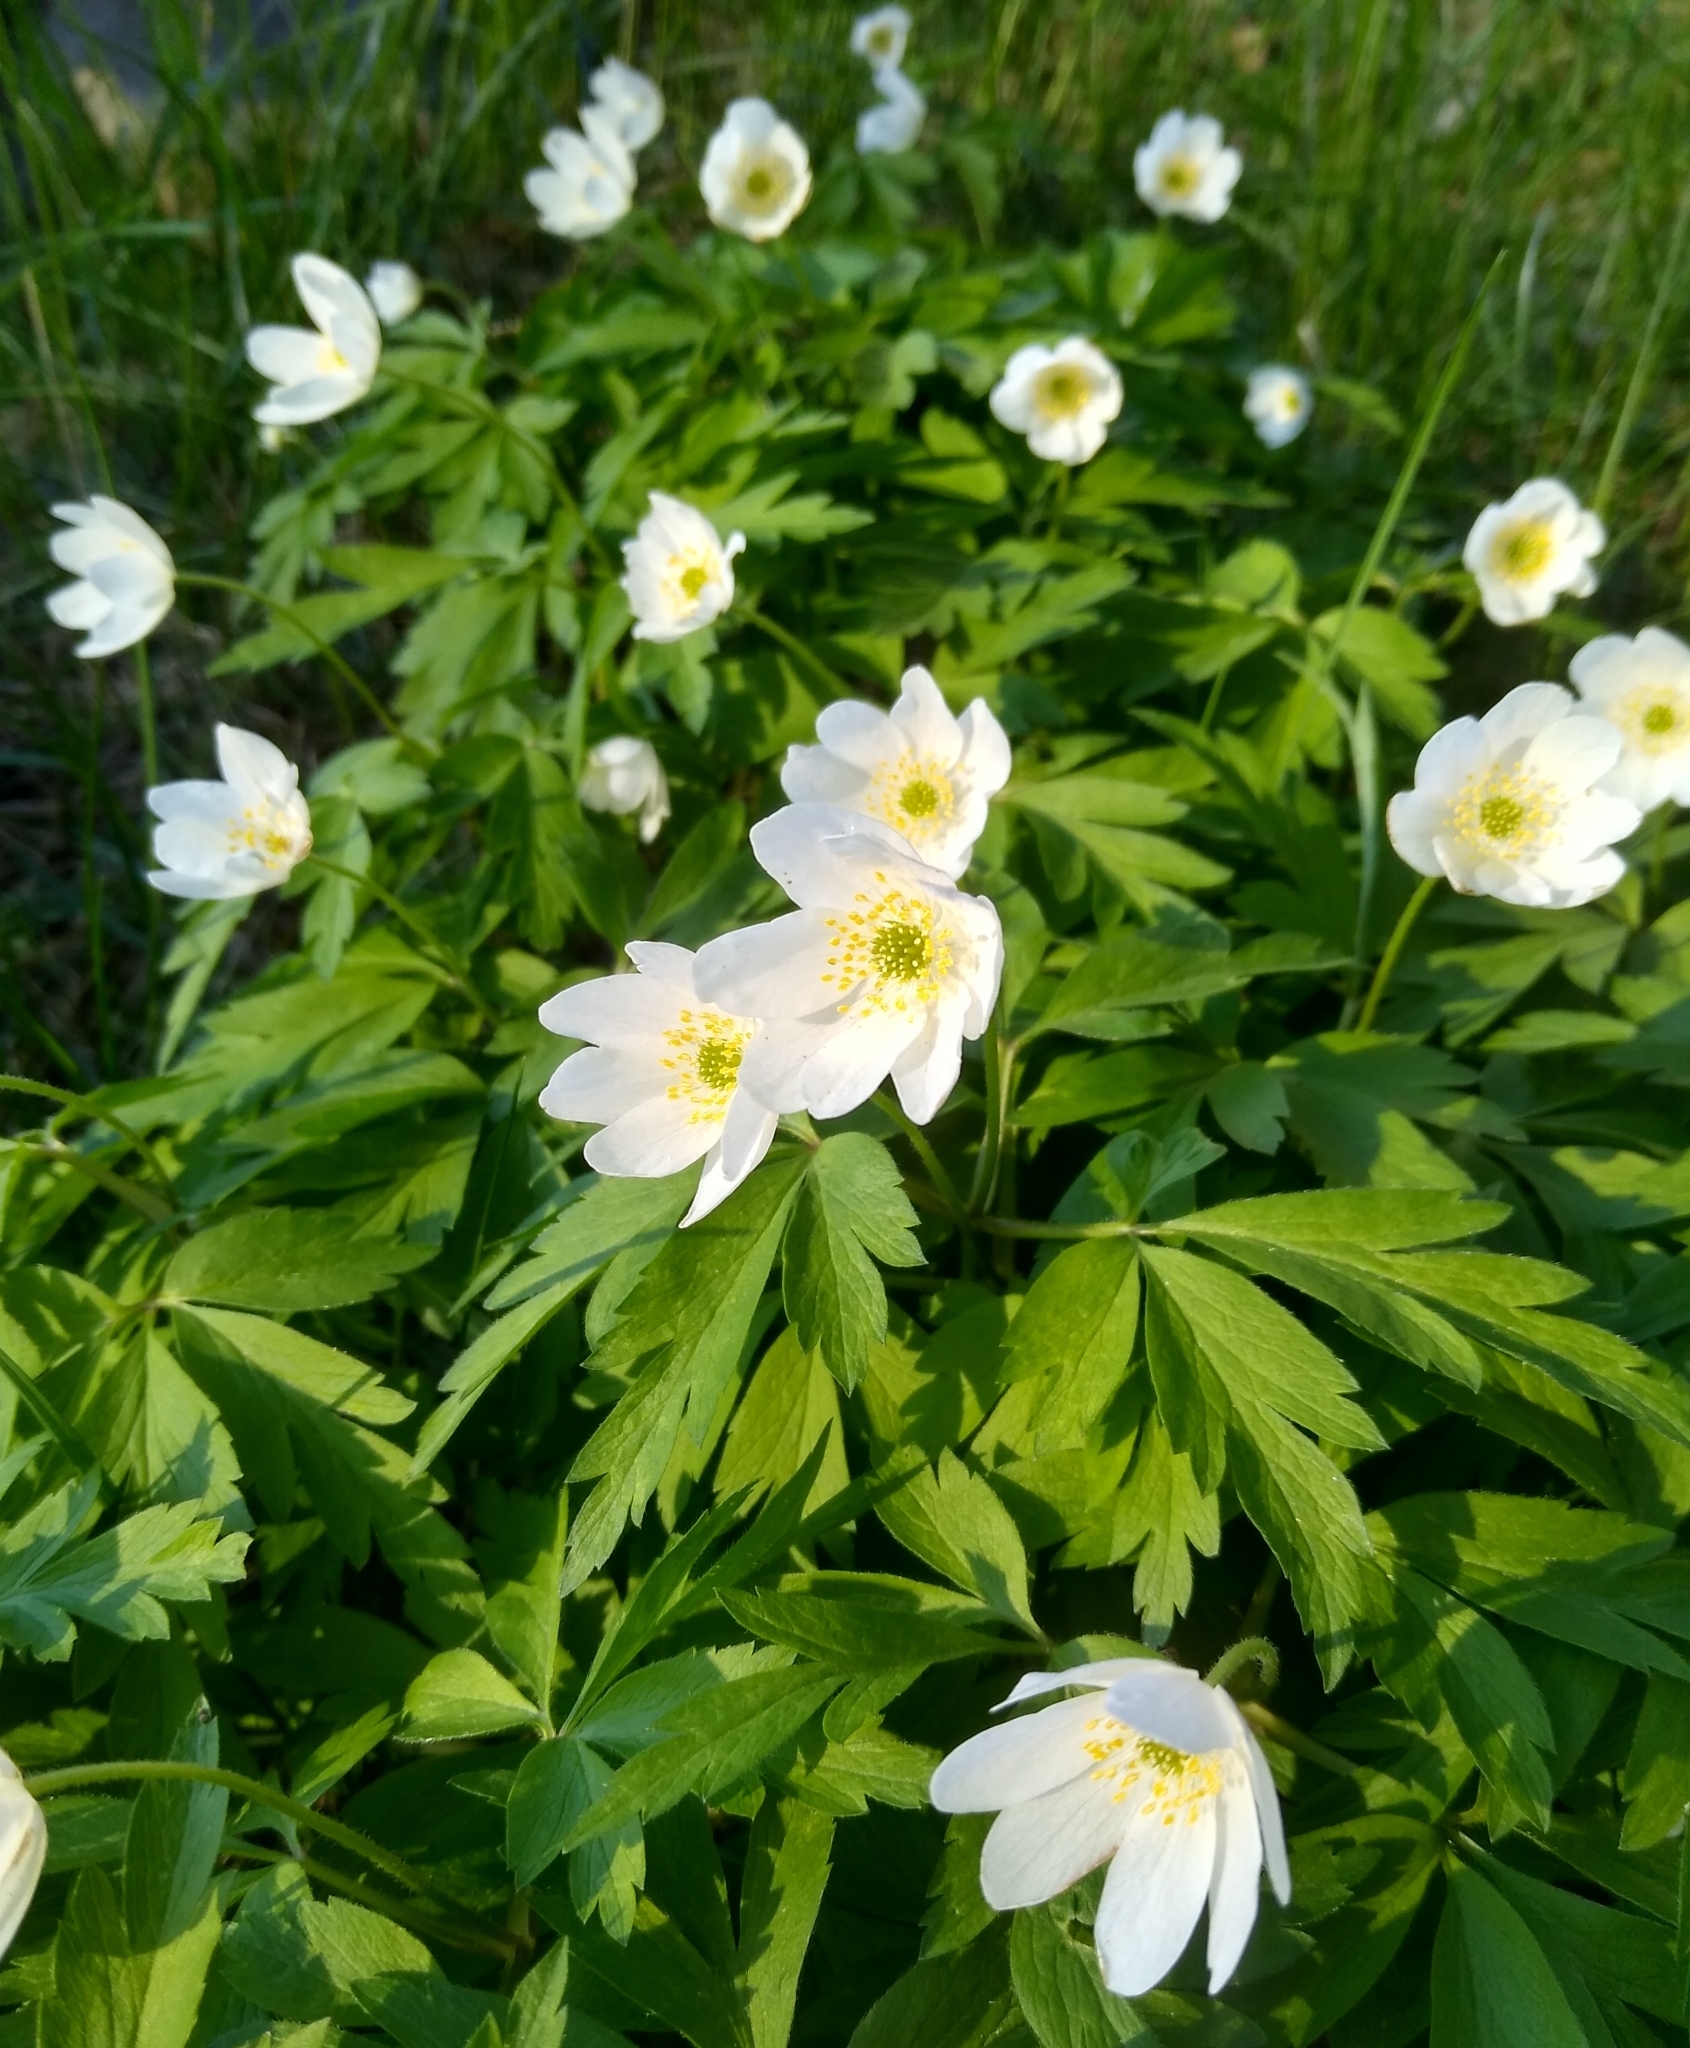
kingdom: Plantae
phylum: Tracheophyta
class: Magnoliopsida
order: Ranunculales
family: Ranunculaceae
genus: Anemone
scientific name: Anemone nemorosa
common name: Wood anemone
